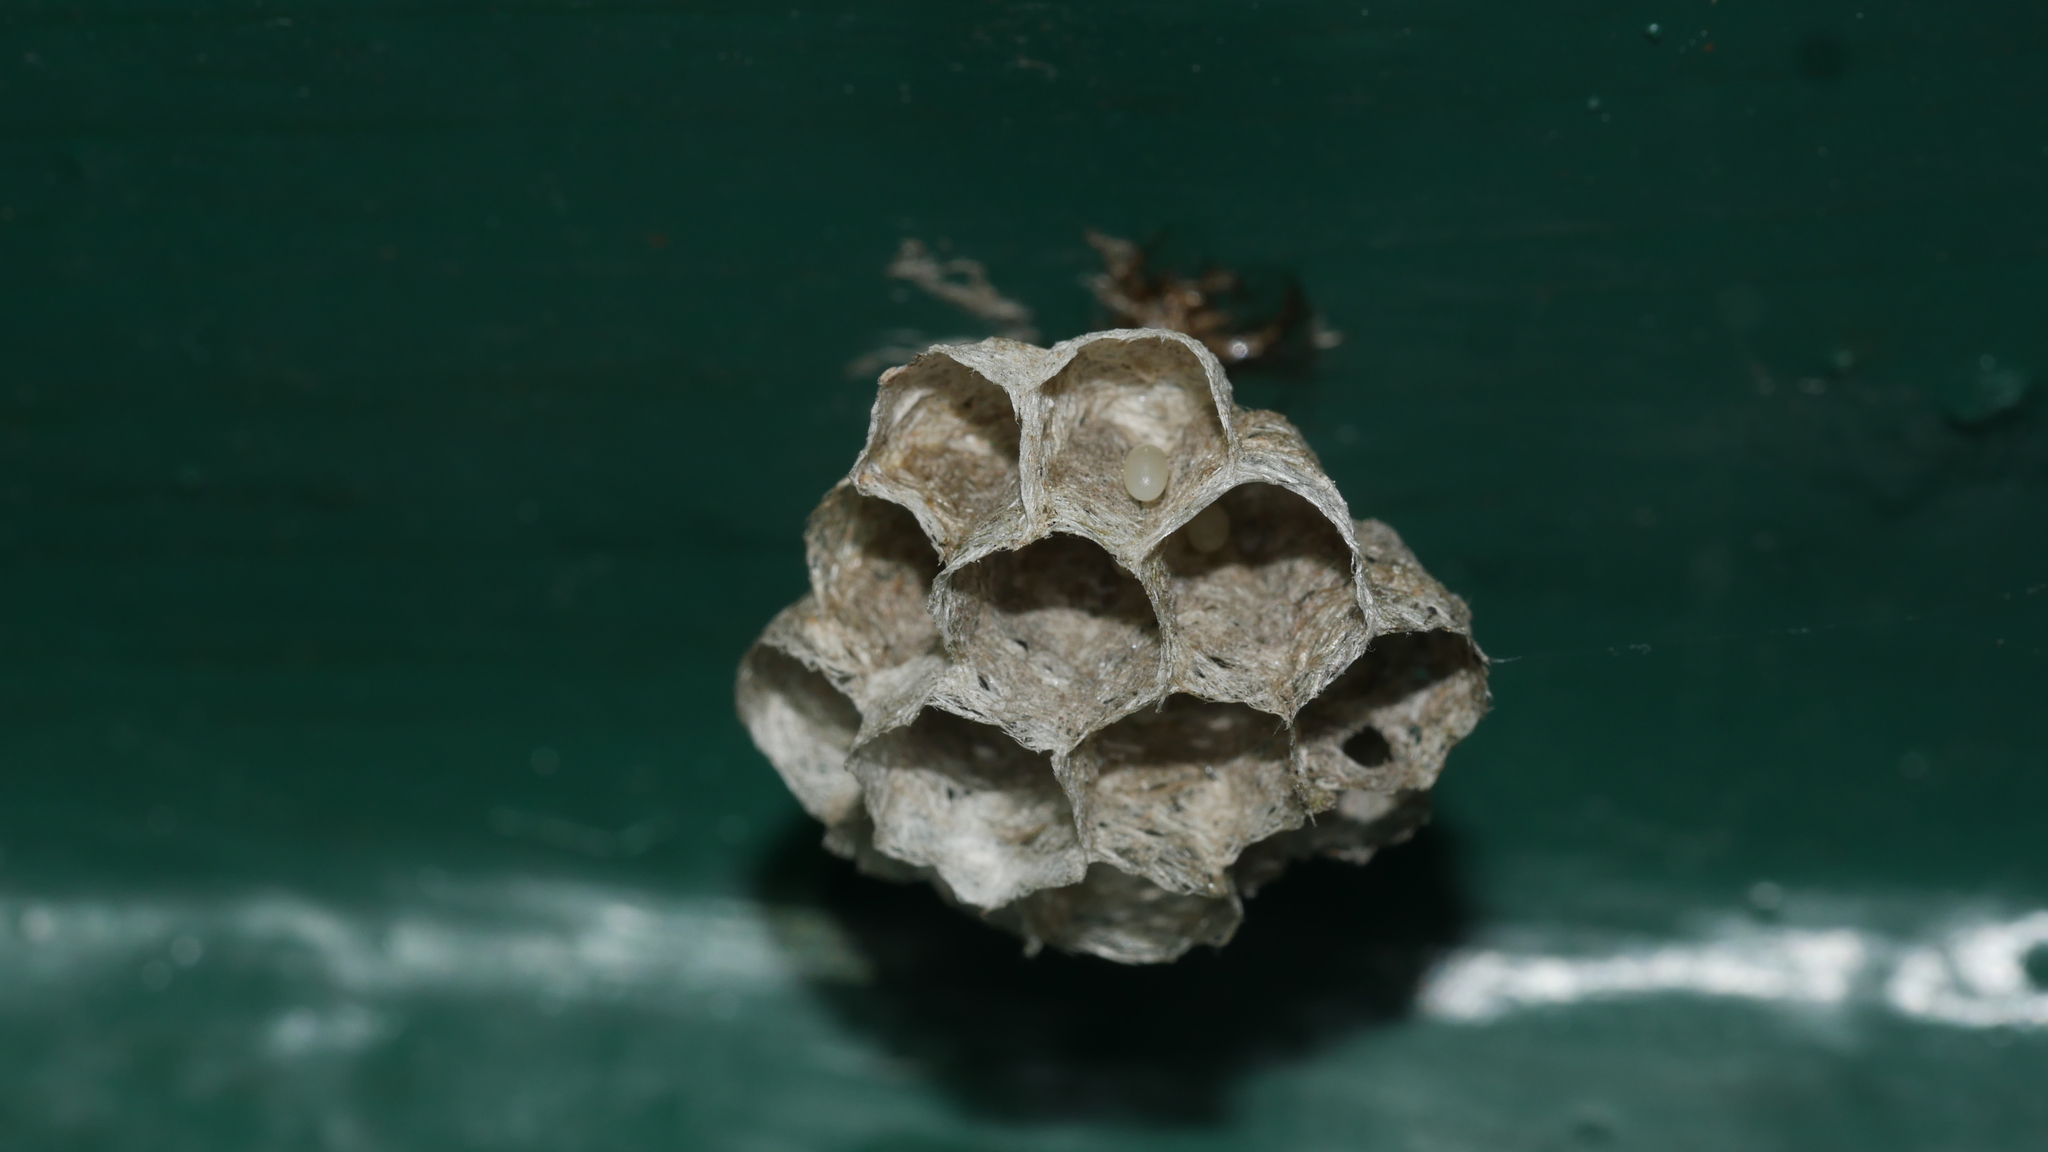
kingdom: Animalia
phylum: Arthropoda
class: Insecta
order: Hymenoptera
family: Eumenidae
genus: Polistes
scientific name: Polistes
